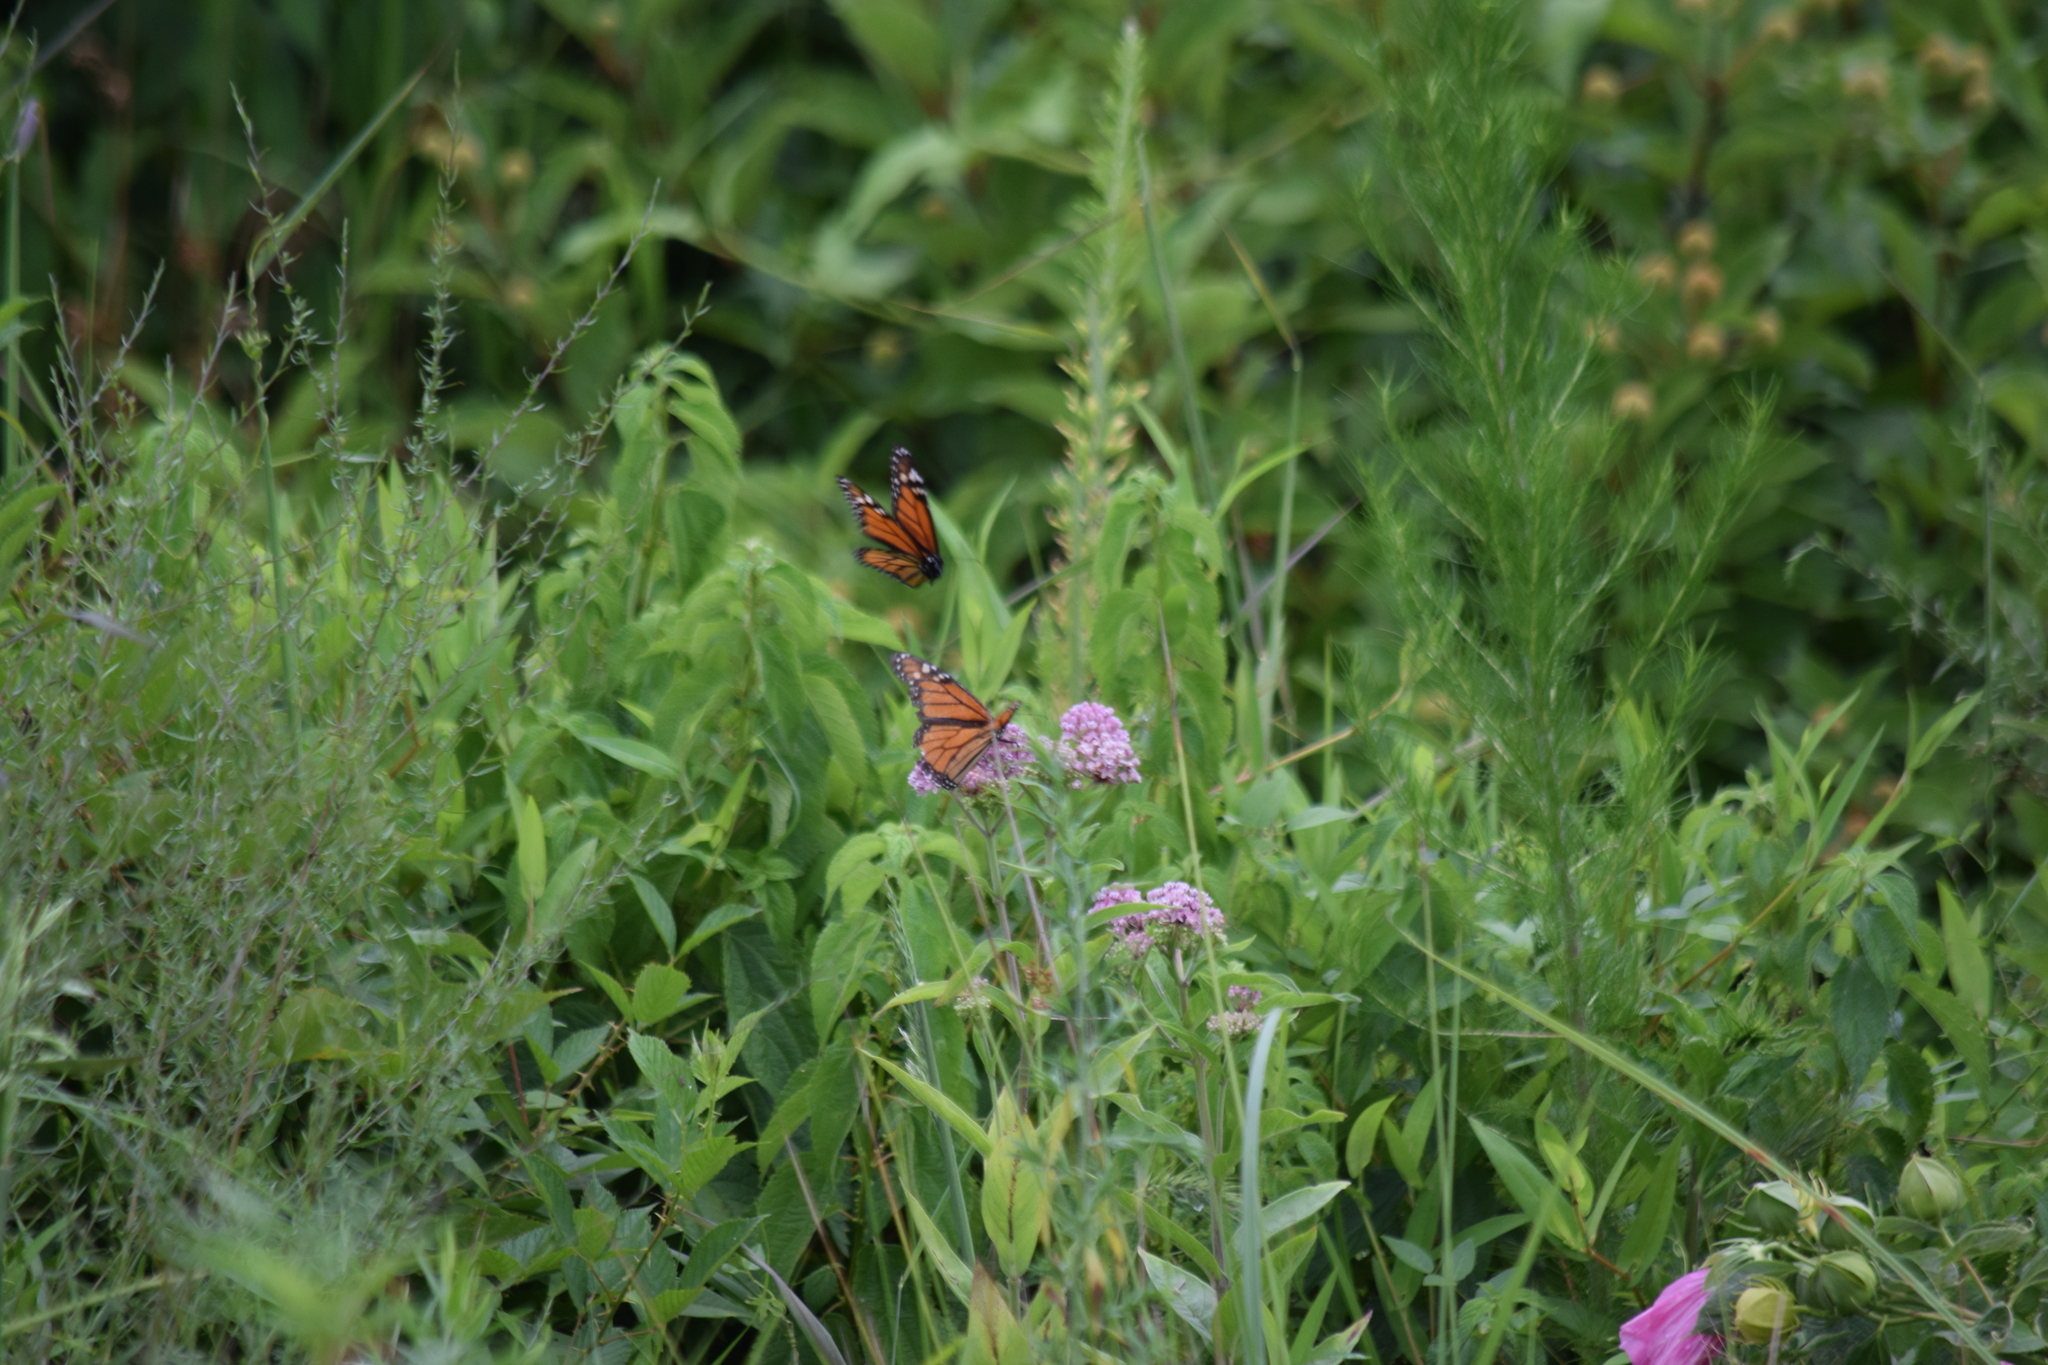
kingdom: Animalia
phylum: Arthropoda
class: Insecta
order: Lepidoptera
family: Nymphalidae
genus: Danaus
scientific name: Danaus plexippus
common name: Monarch
